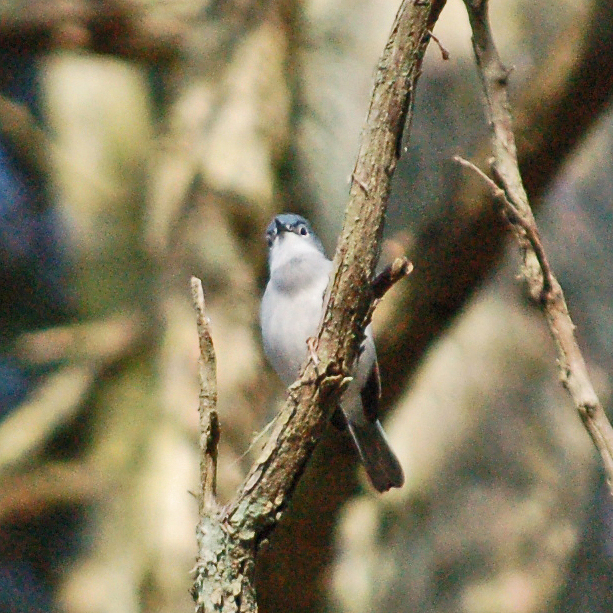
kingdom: Animalia
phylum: Chordata
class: Aves
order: Passeriformes
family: Polioptilidae
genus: Polioptila
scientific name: Polioptila caerulea
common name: Blue-gray gnatcatcher
